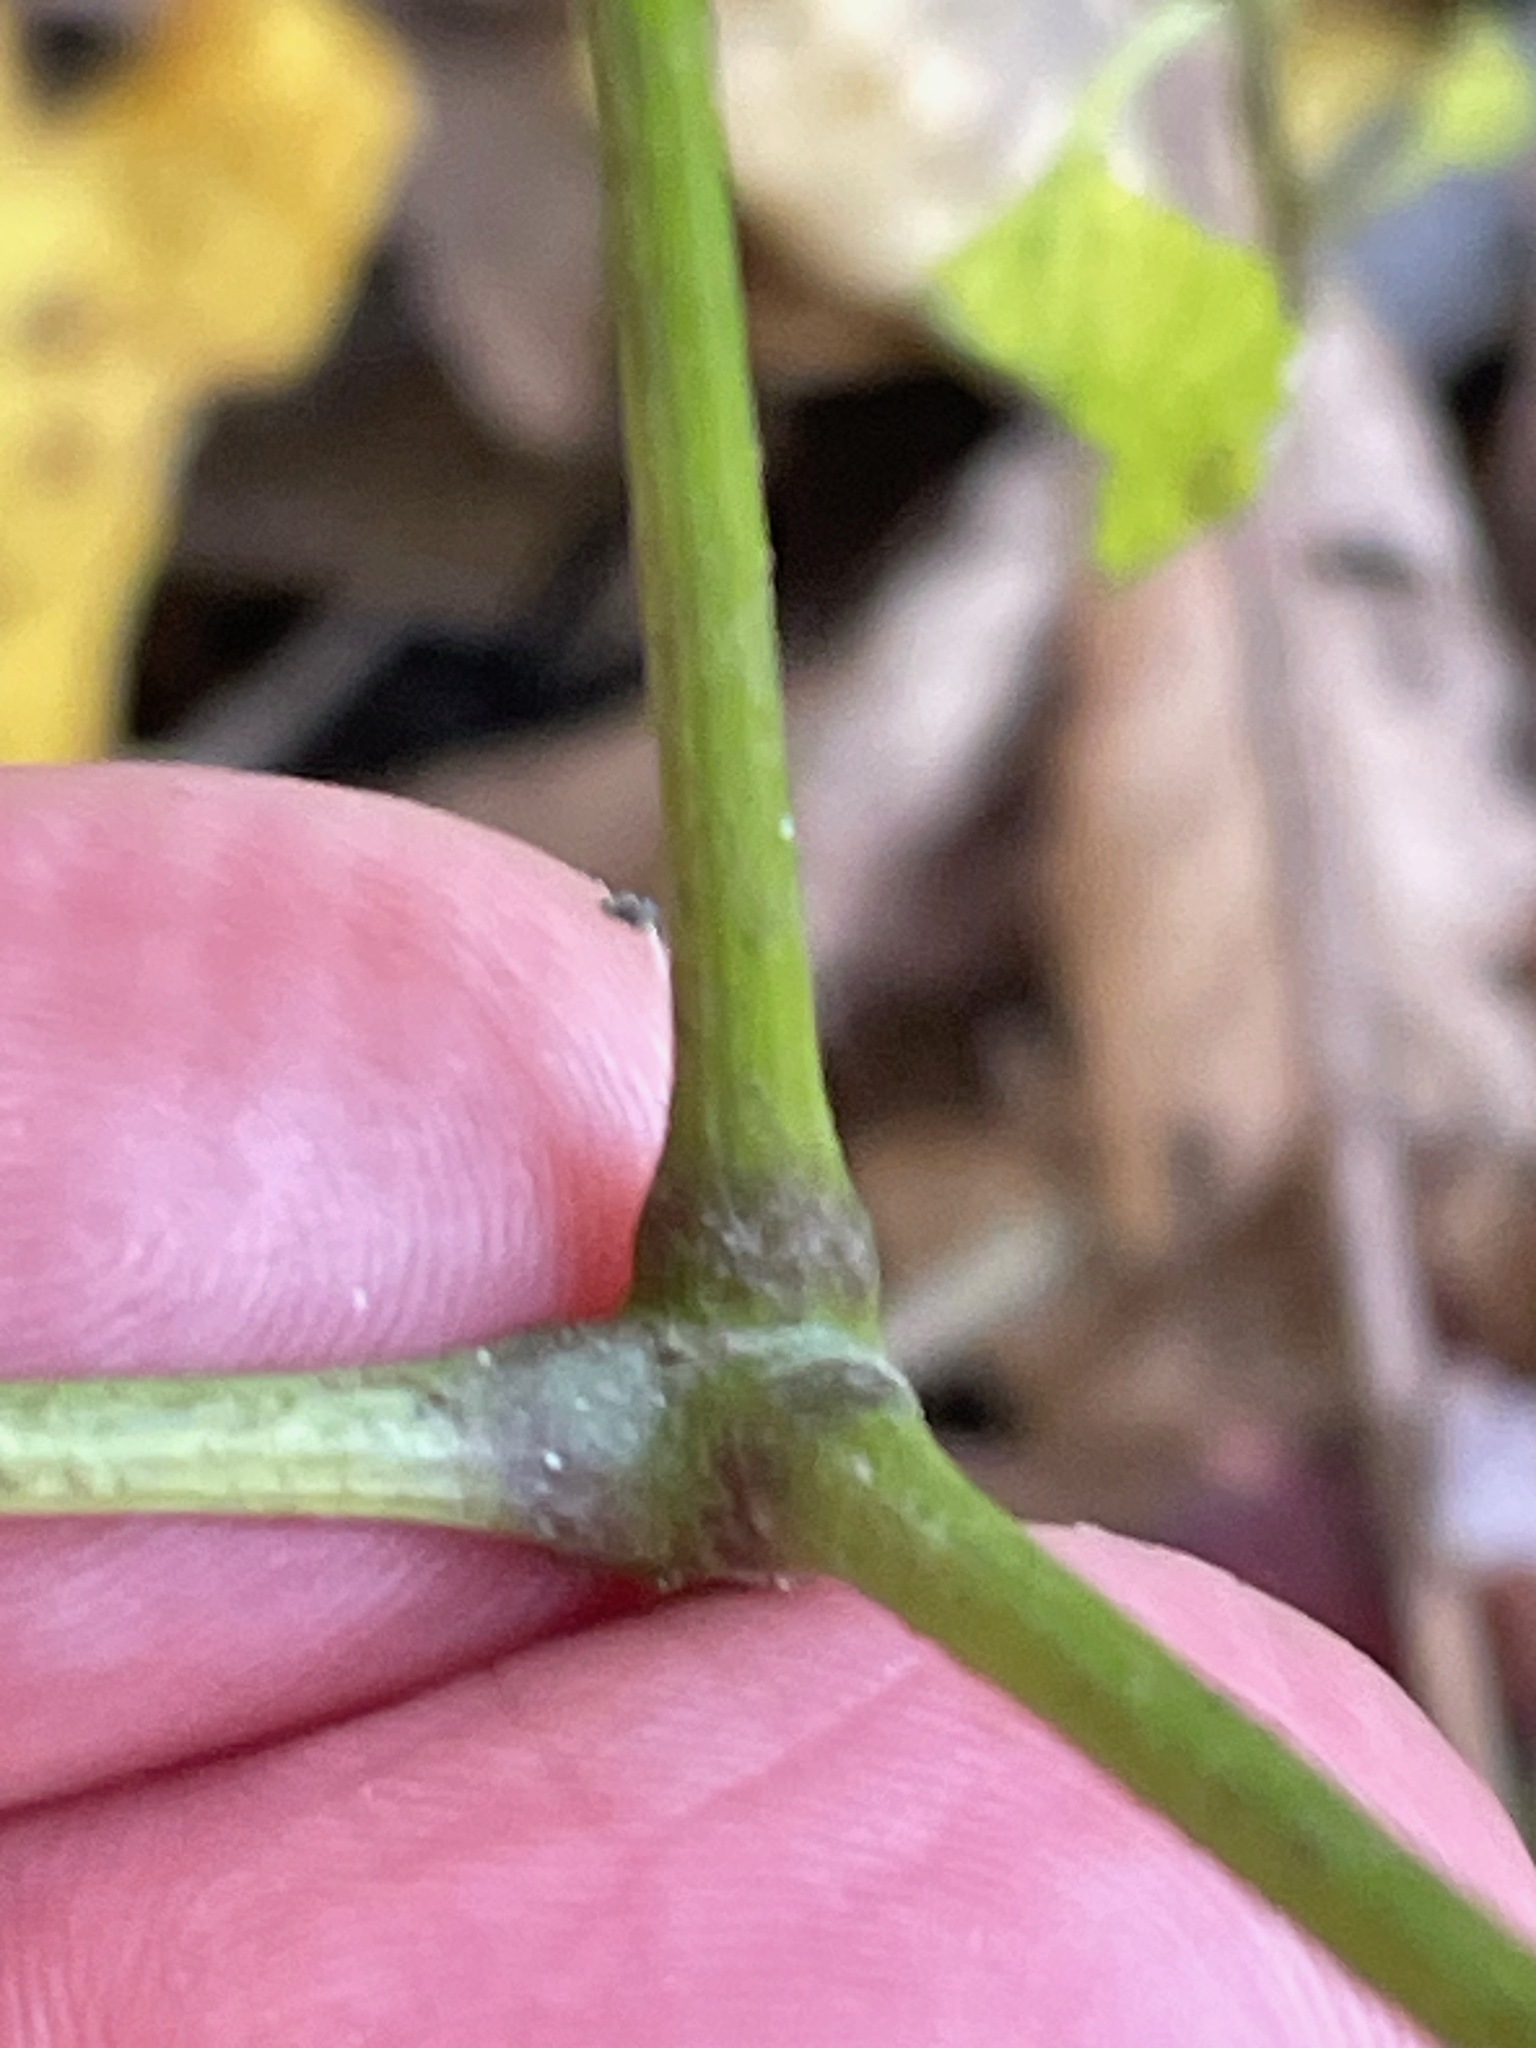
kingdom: Plantae
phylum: Tracheophyta
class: Magnoliopsida
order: Apiales
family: Araliaceae
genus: Aralia
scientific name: Aralia nudicaulis
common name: Wild sarsaparilla
